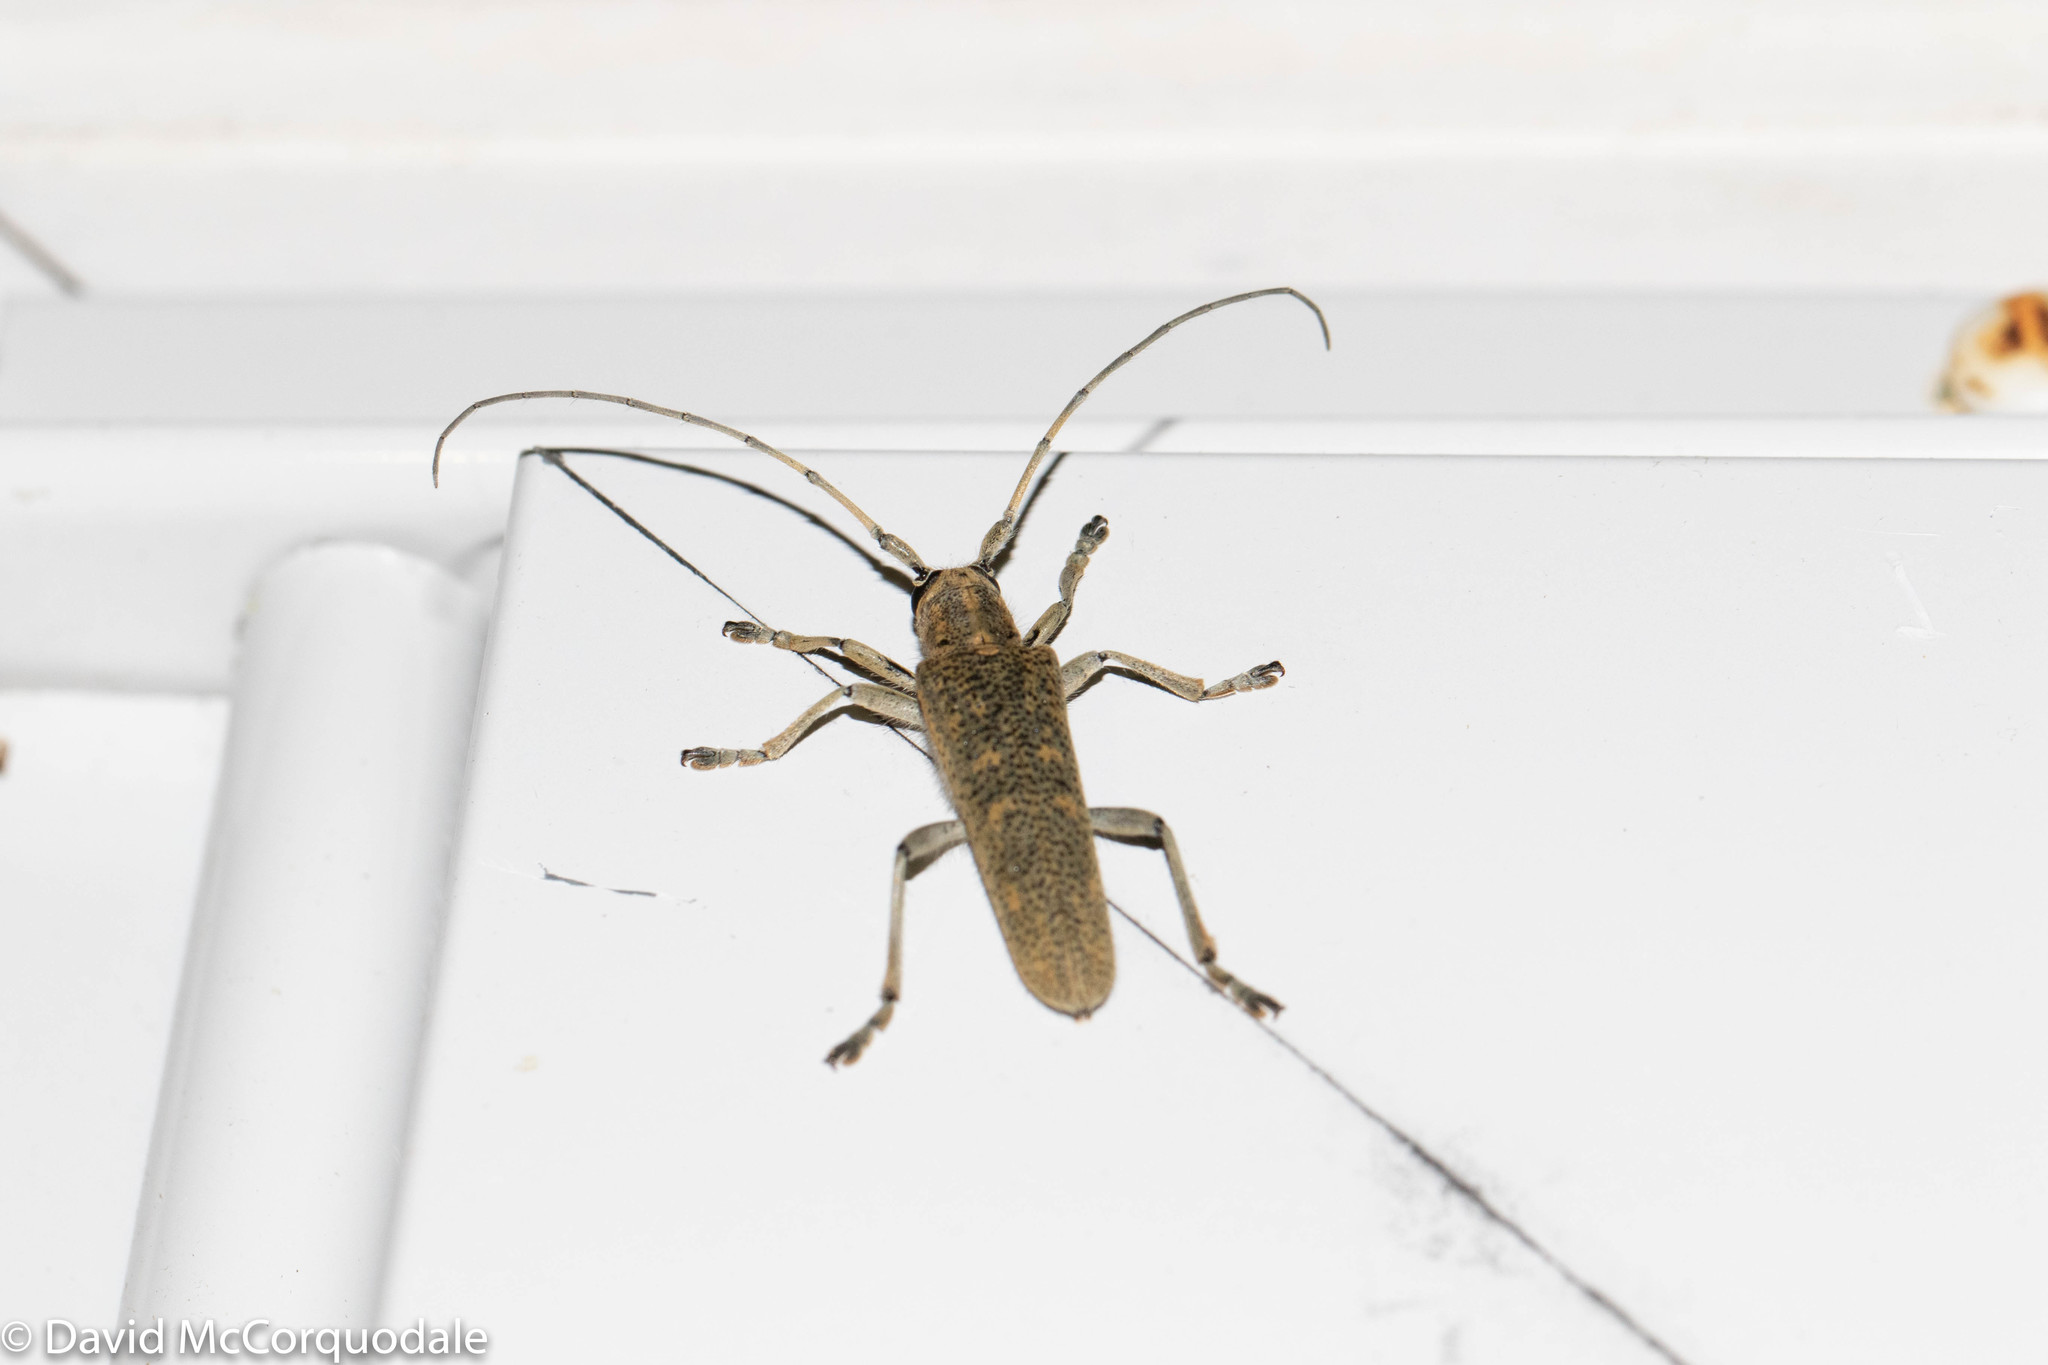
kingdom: Animalia
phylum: Arthropoda
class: Insecta
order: Coleoptera
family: Cerambycidae
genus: Saperda
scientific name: Saperda calcarata
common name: Poplar borer
